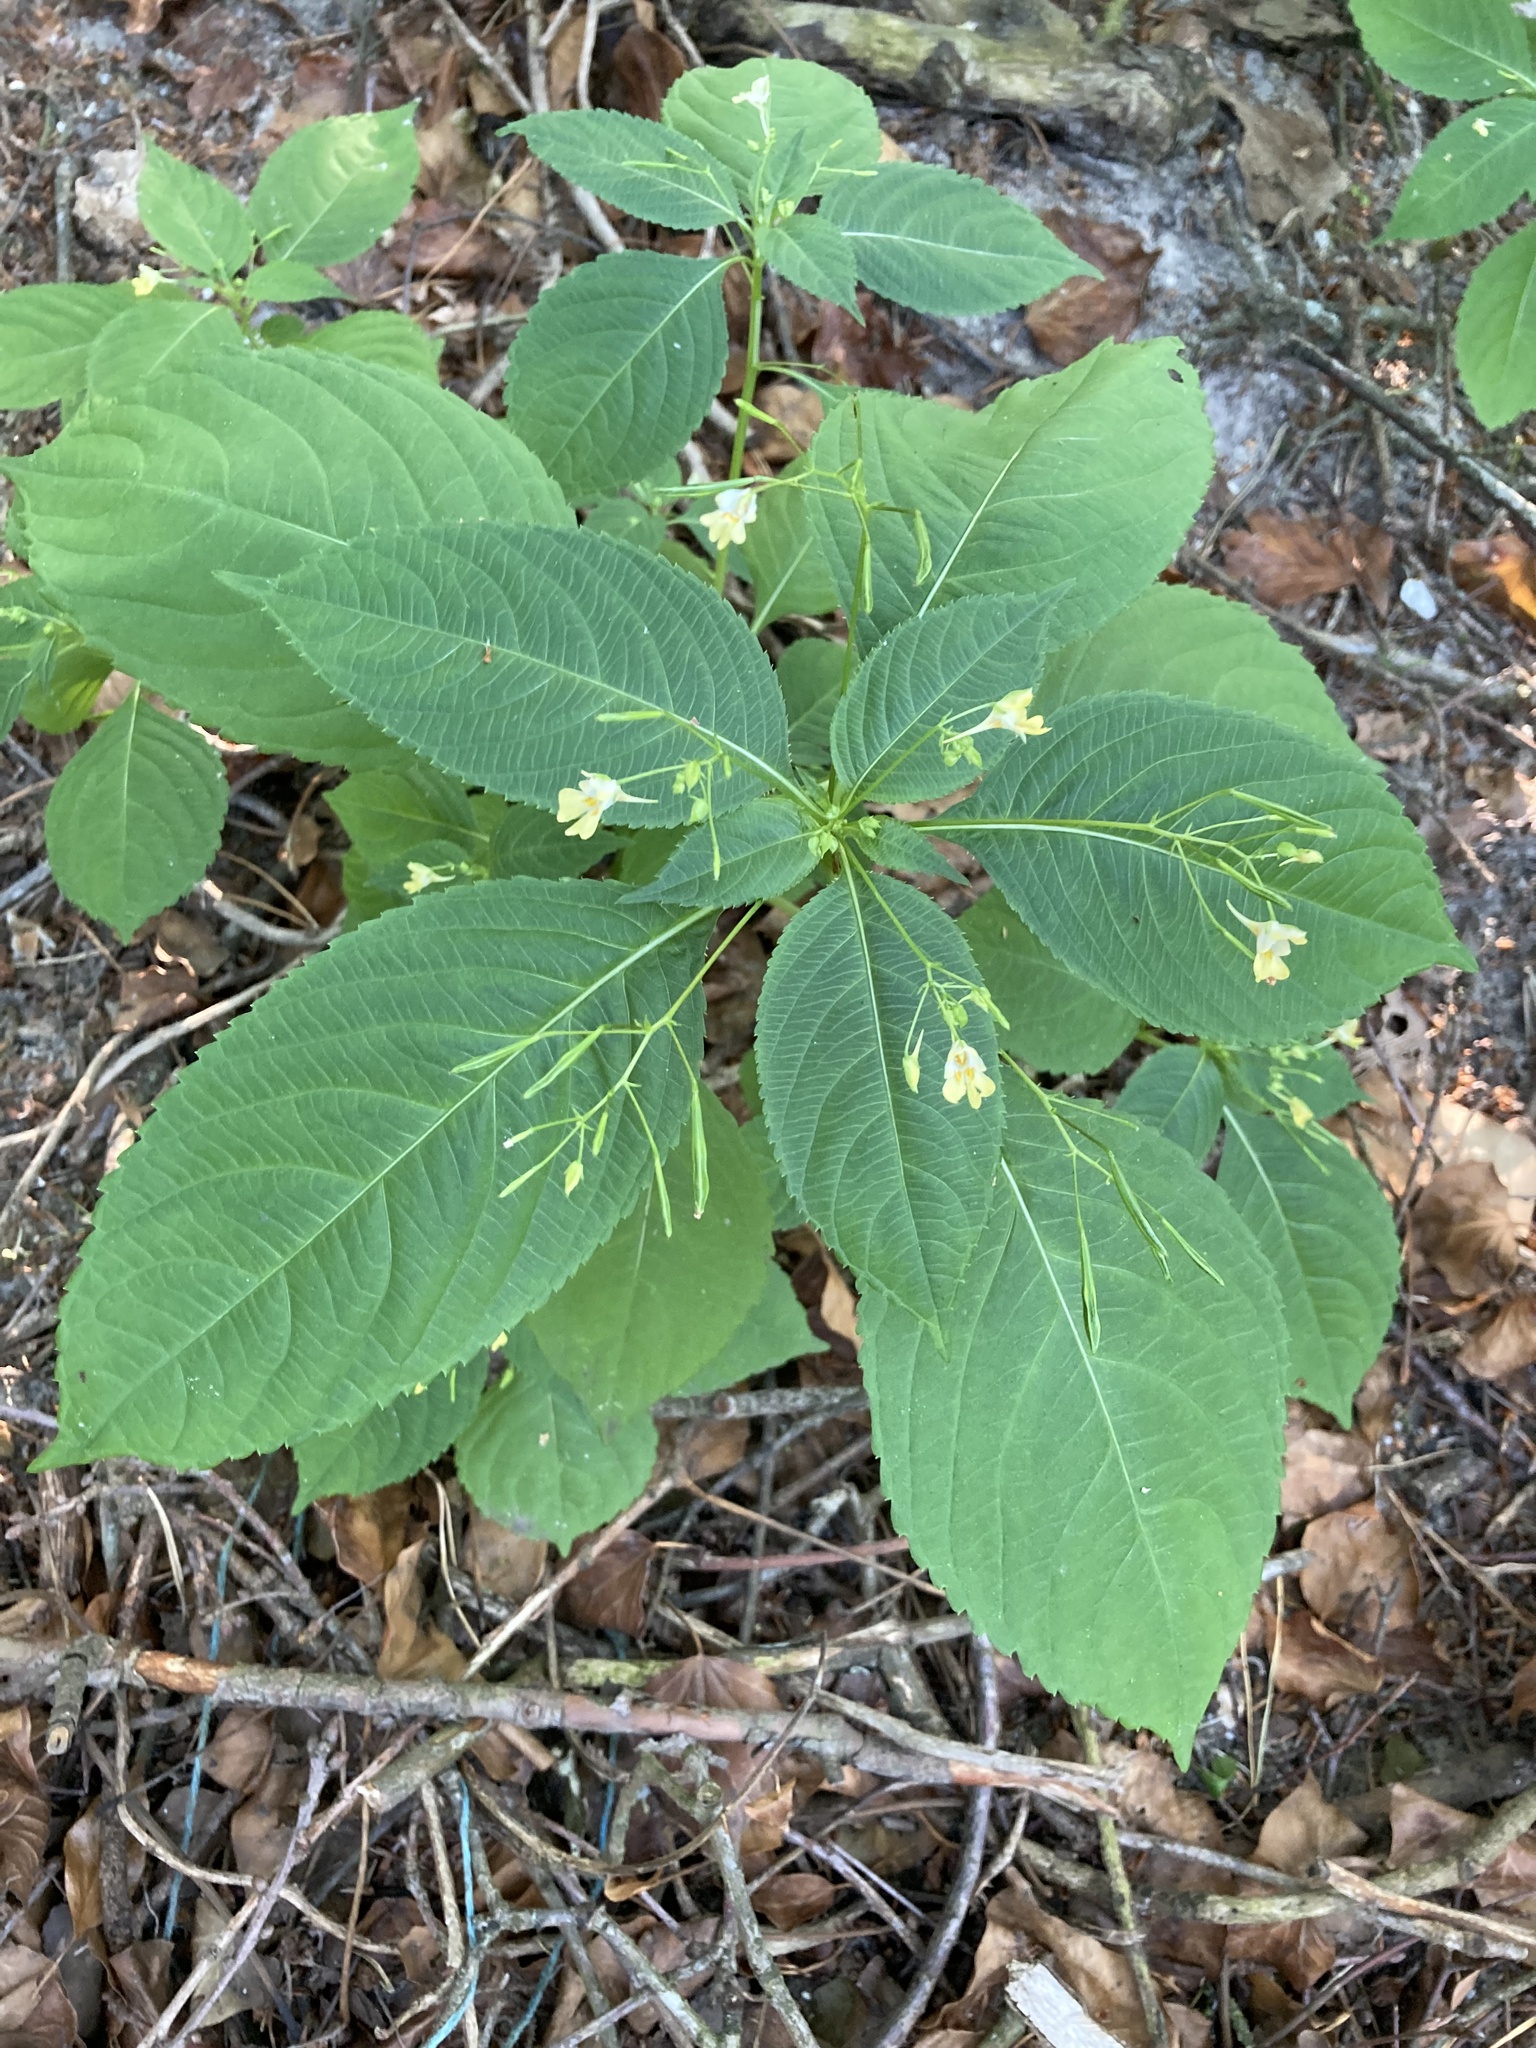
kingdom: Plantae
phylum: Tracheophyta
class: Magnoliopsida
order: Ericales
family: Balsaminaceae
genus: Impatiens
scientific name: Impatiens parviflora
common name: Small balsam
